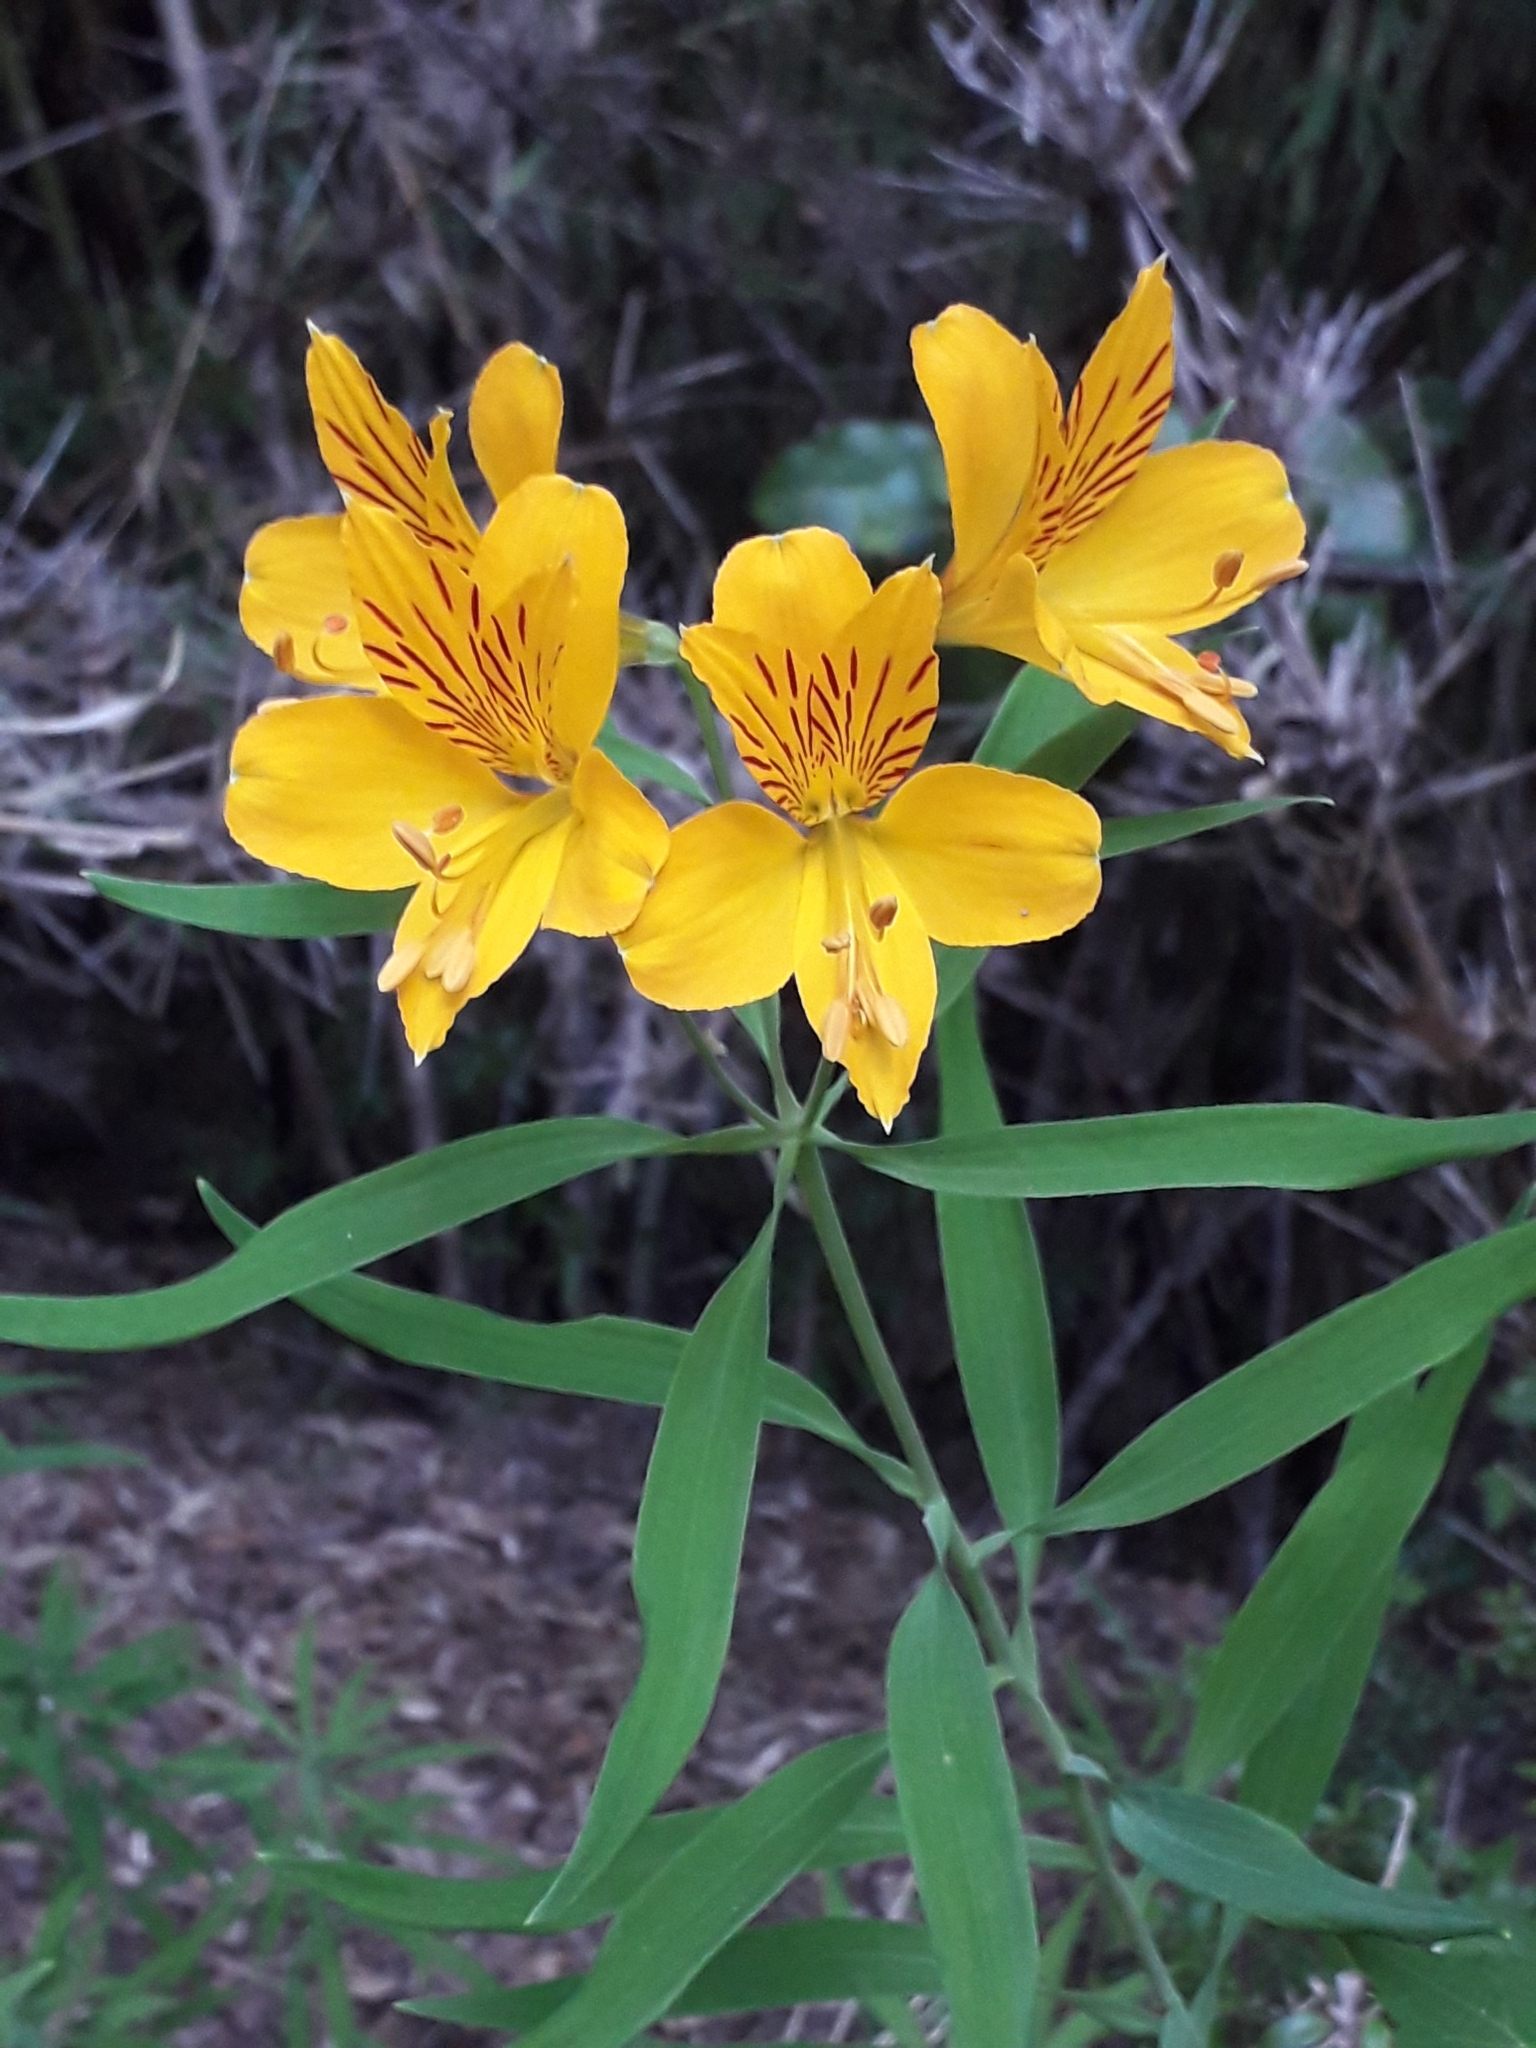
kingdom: Plantae
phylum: Tracheophyta
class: Liliopsida
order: Liliales
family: Alstroemeriaceae
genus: Alstroemeria
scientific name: Alstroemeria aurea
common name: Peruvian lily
